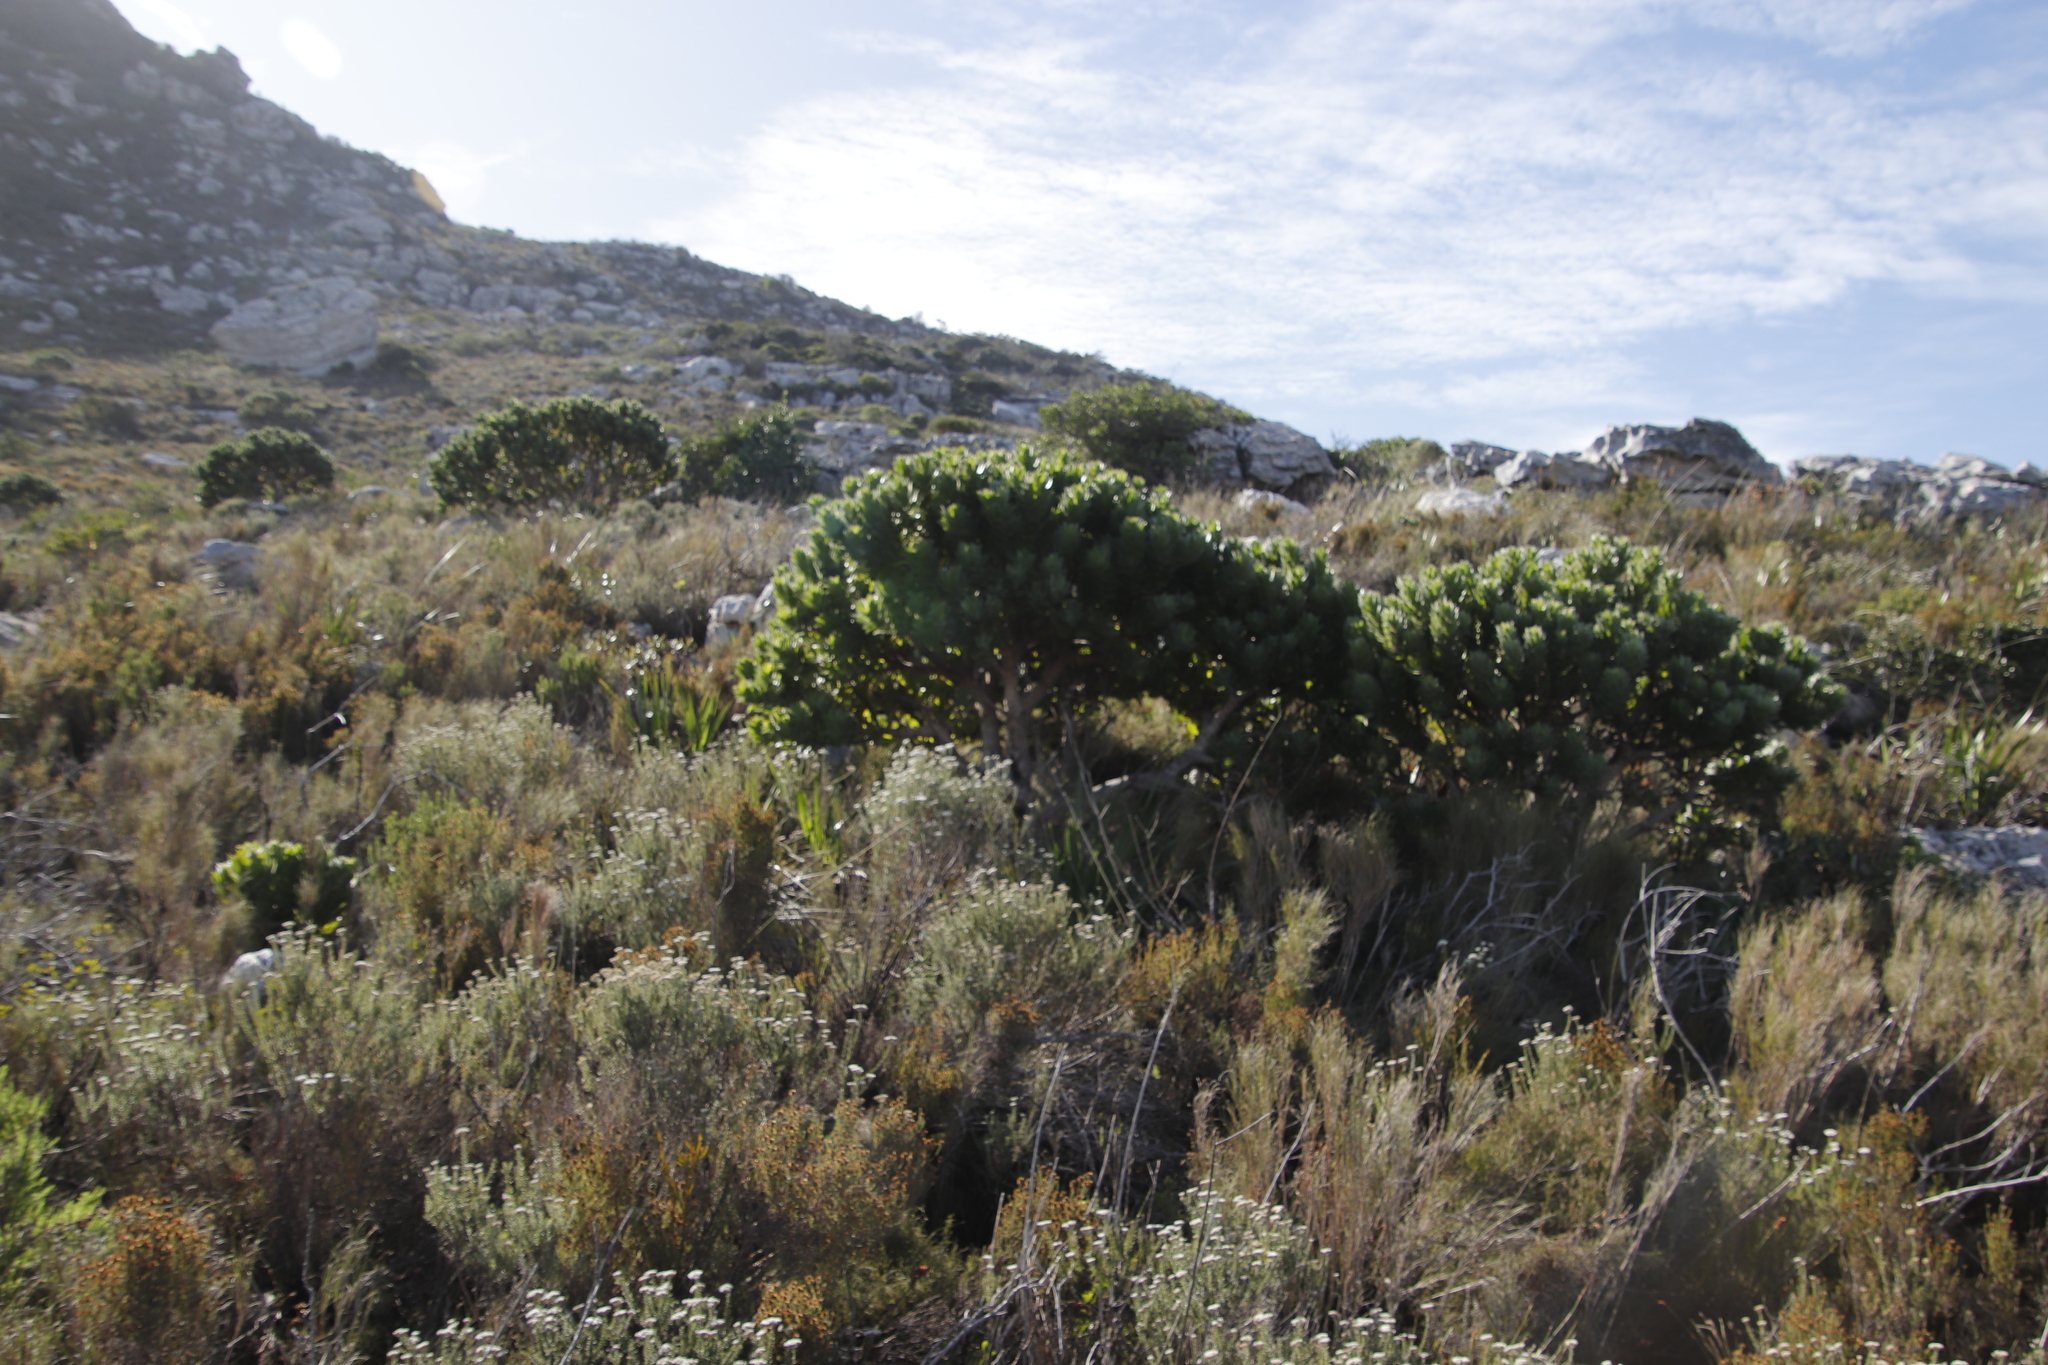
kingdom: Plantae
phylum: Tracheophyta
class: Magnoliopsida
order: Proteales
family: Proteaceae
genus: Leucospermum
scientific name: Leucospermum conocarpodendron
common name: Tree pincushion
